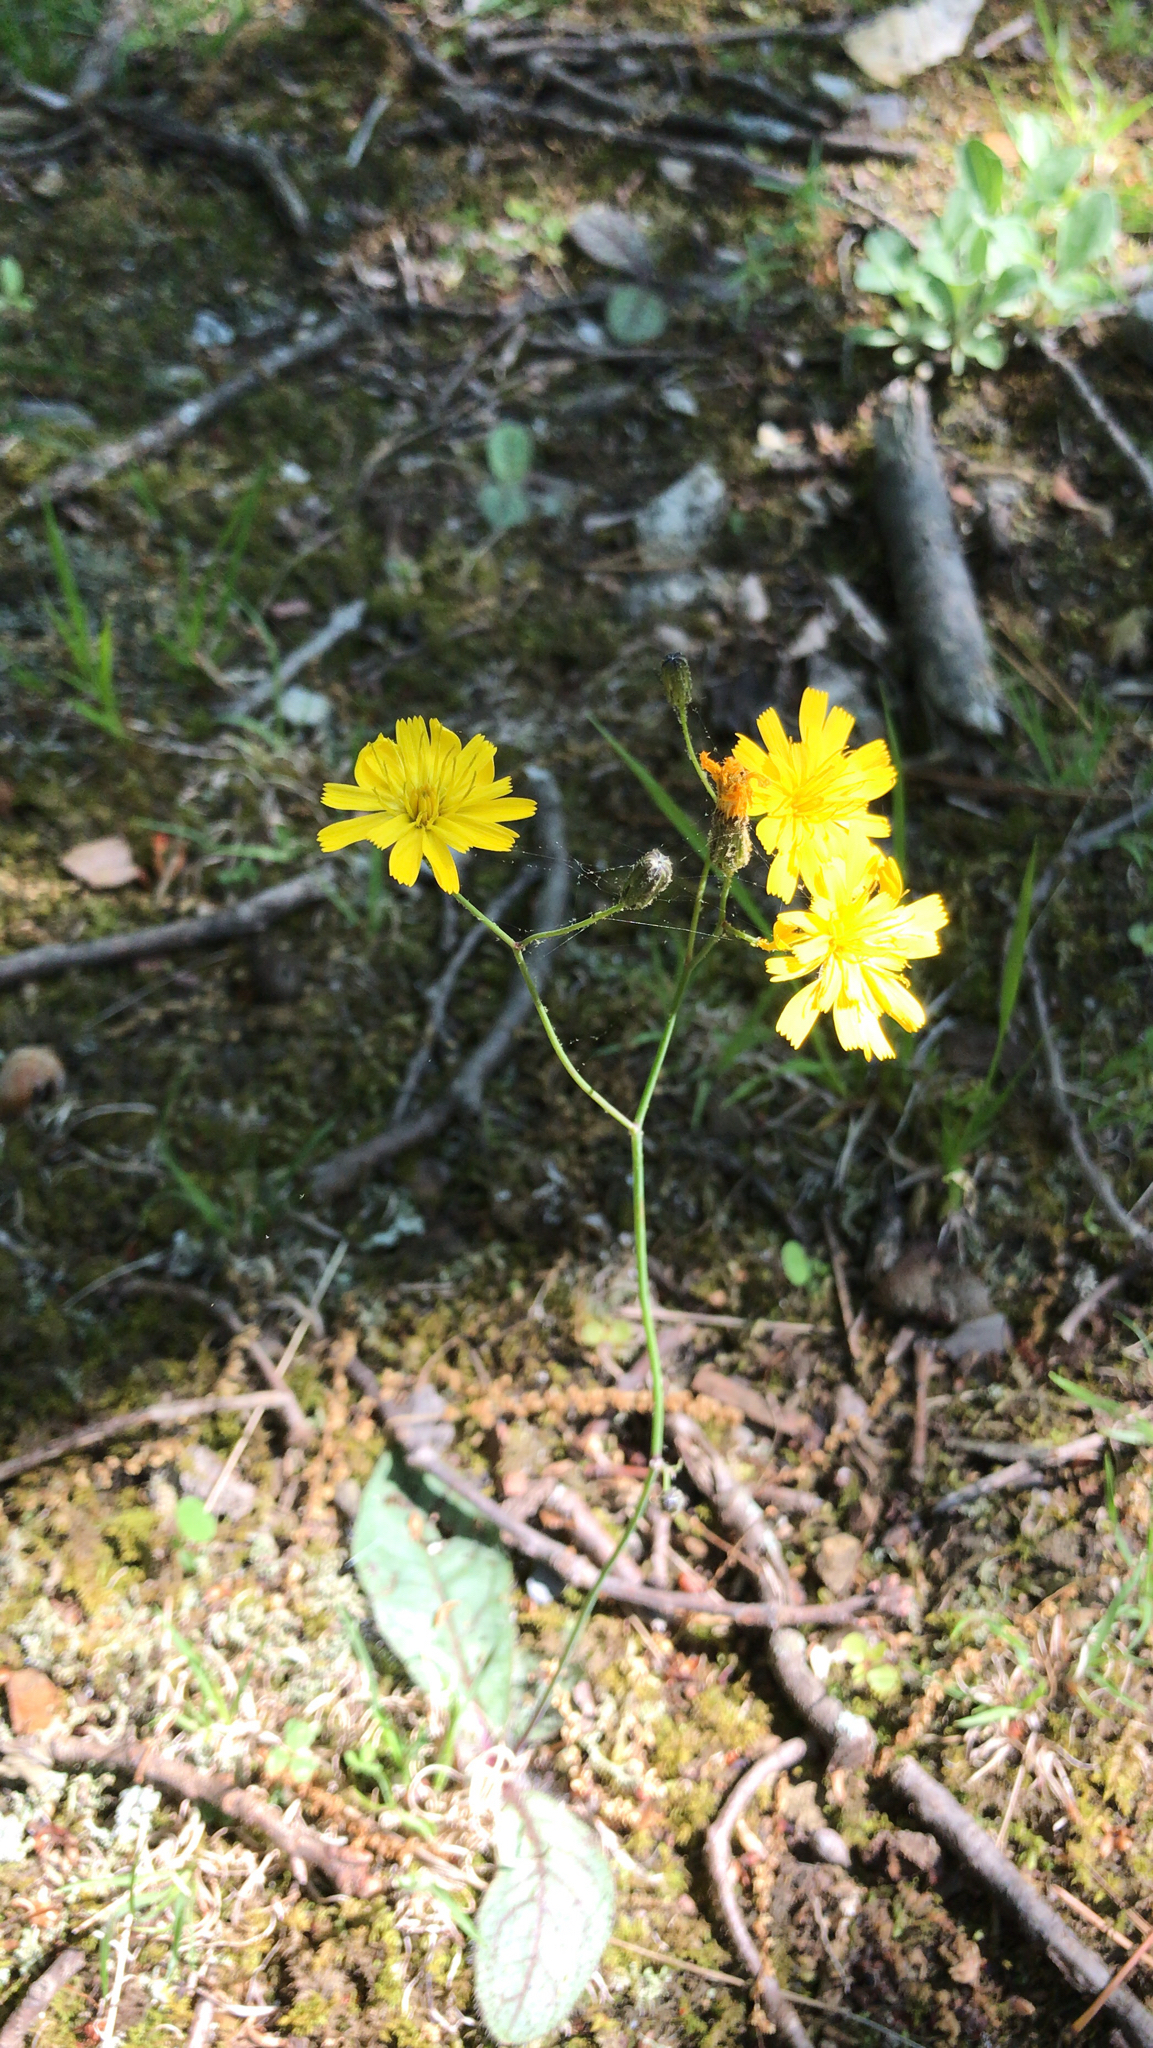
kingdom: Plantae
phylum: Tracheophyta
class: Magnoliopsida
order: Asterales
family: Asteraceae
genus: Hieracium
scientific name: Hieracium venosum
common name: Rattlesnake hawkweed
